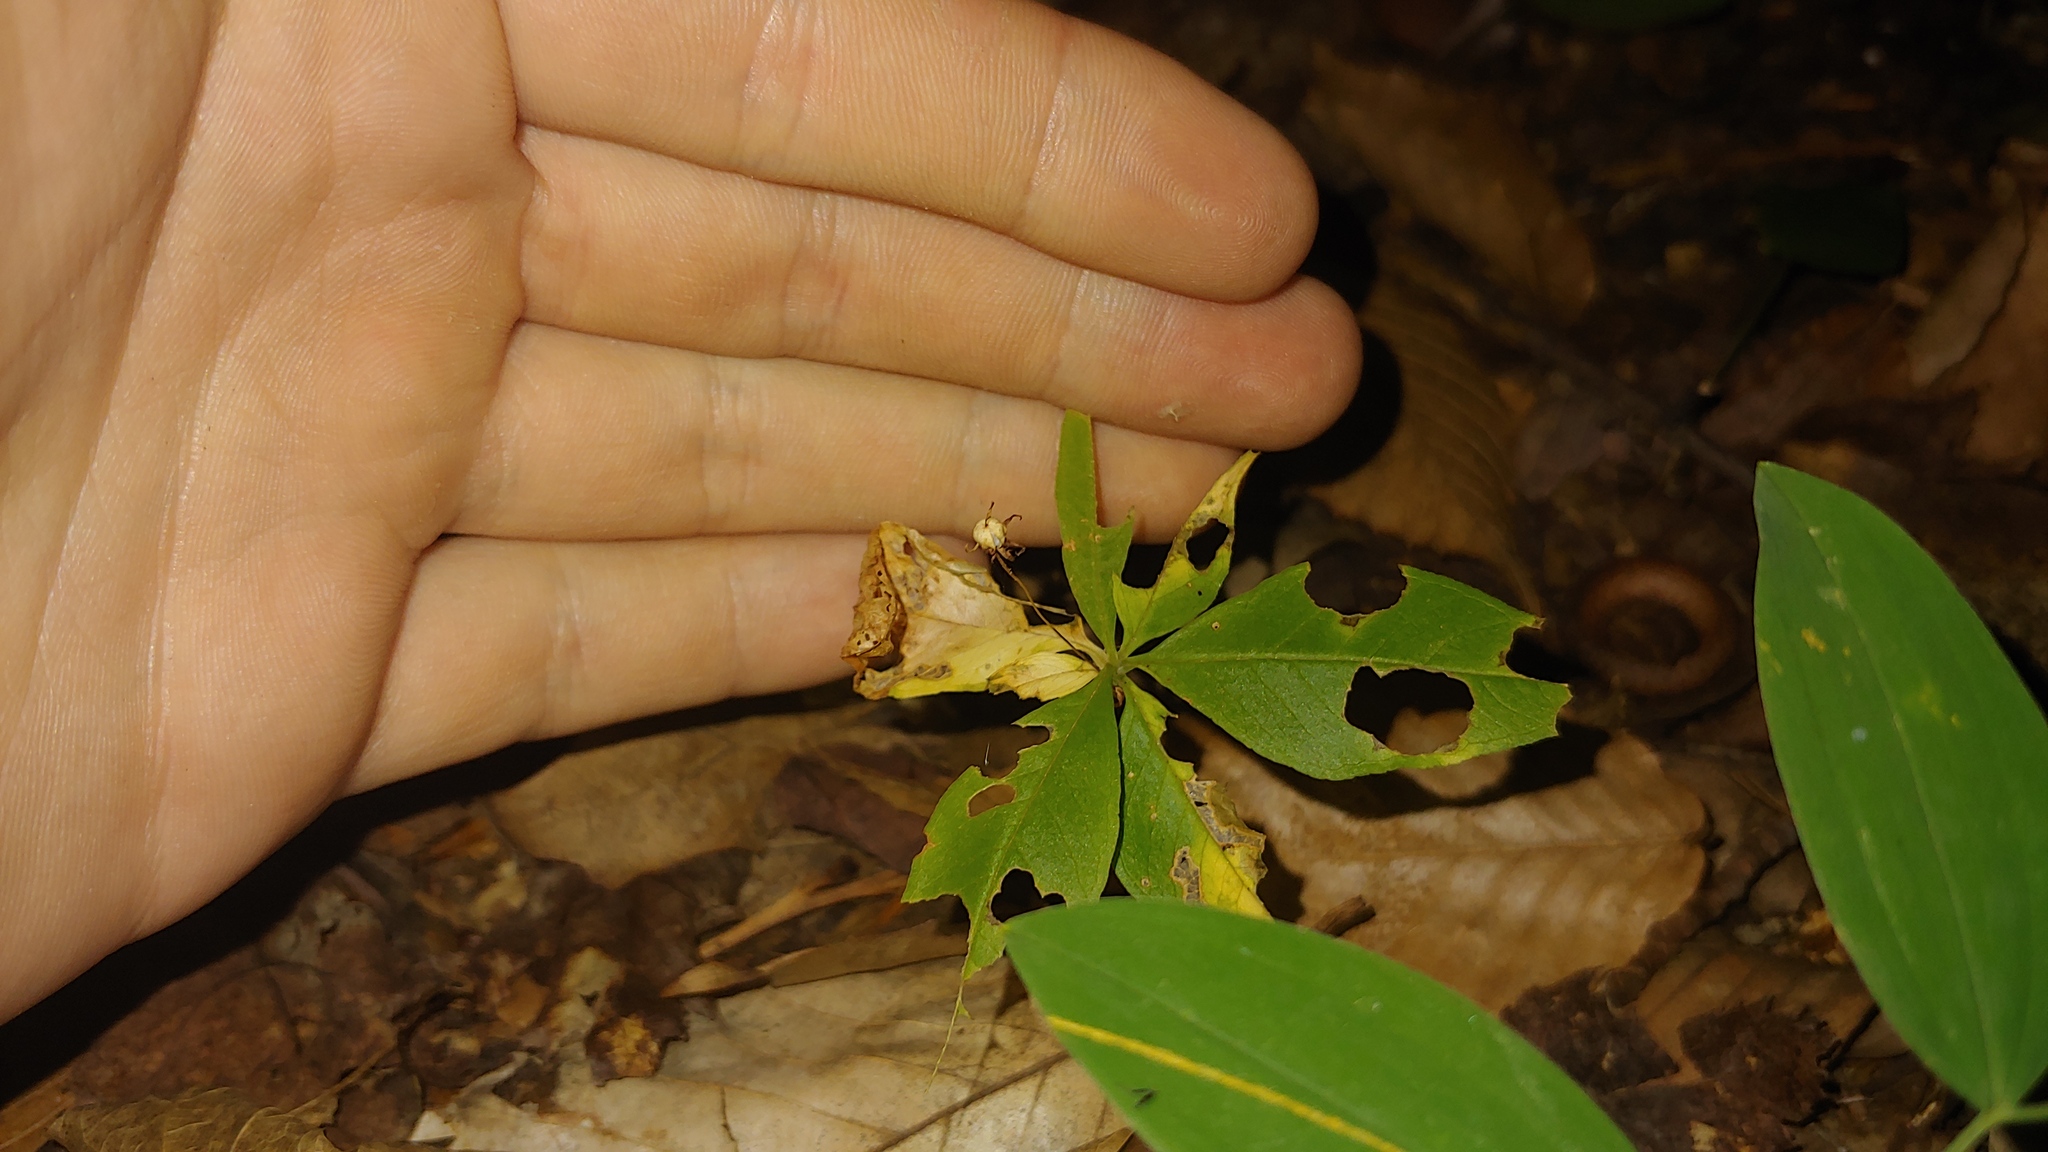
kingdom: Plantae
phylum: Tracheophyta
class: Magnoliopsida
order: Ericales
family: Primulaceae
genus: Lysimachia
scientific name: Lysimachia borealis
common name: American starflower
